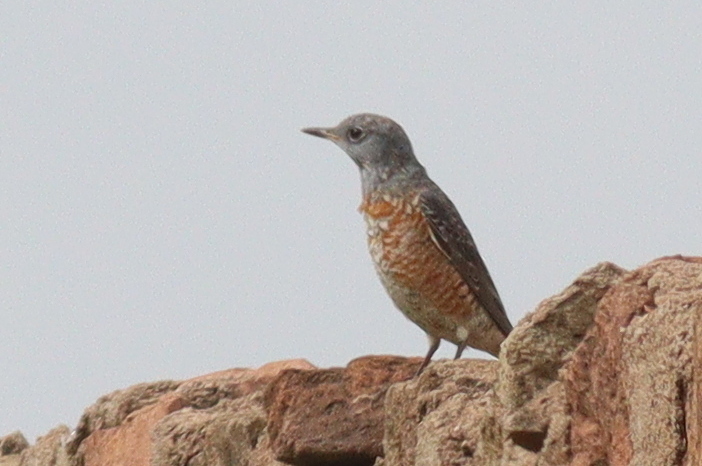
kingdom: Animalia
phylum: Chordata
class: Aves
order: Passeriformes
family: Muscicapidae
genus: Monticola
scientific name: Monticola saxatilis
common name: Rufous-tailed rock thrush
